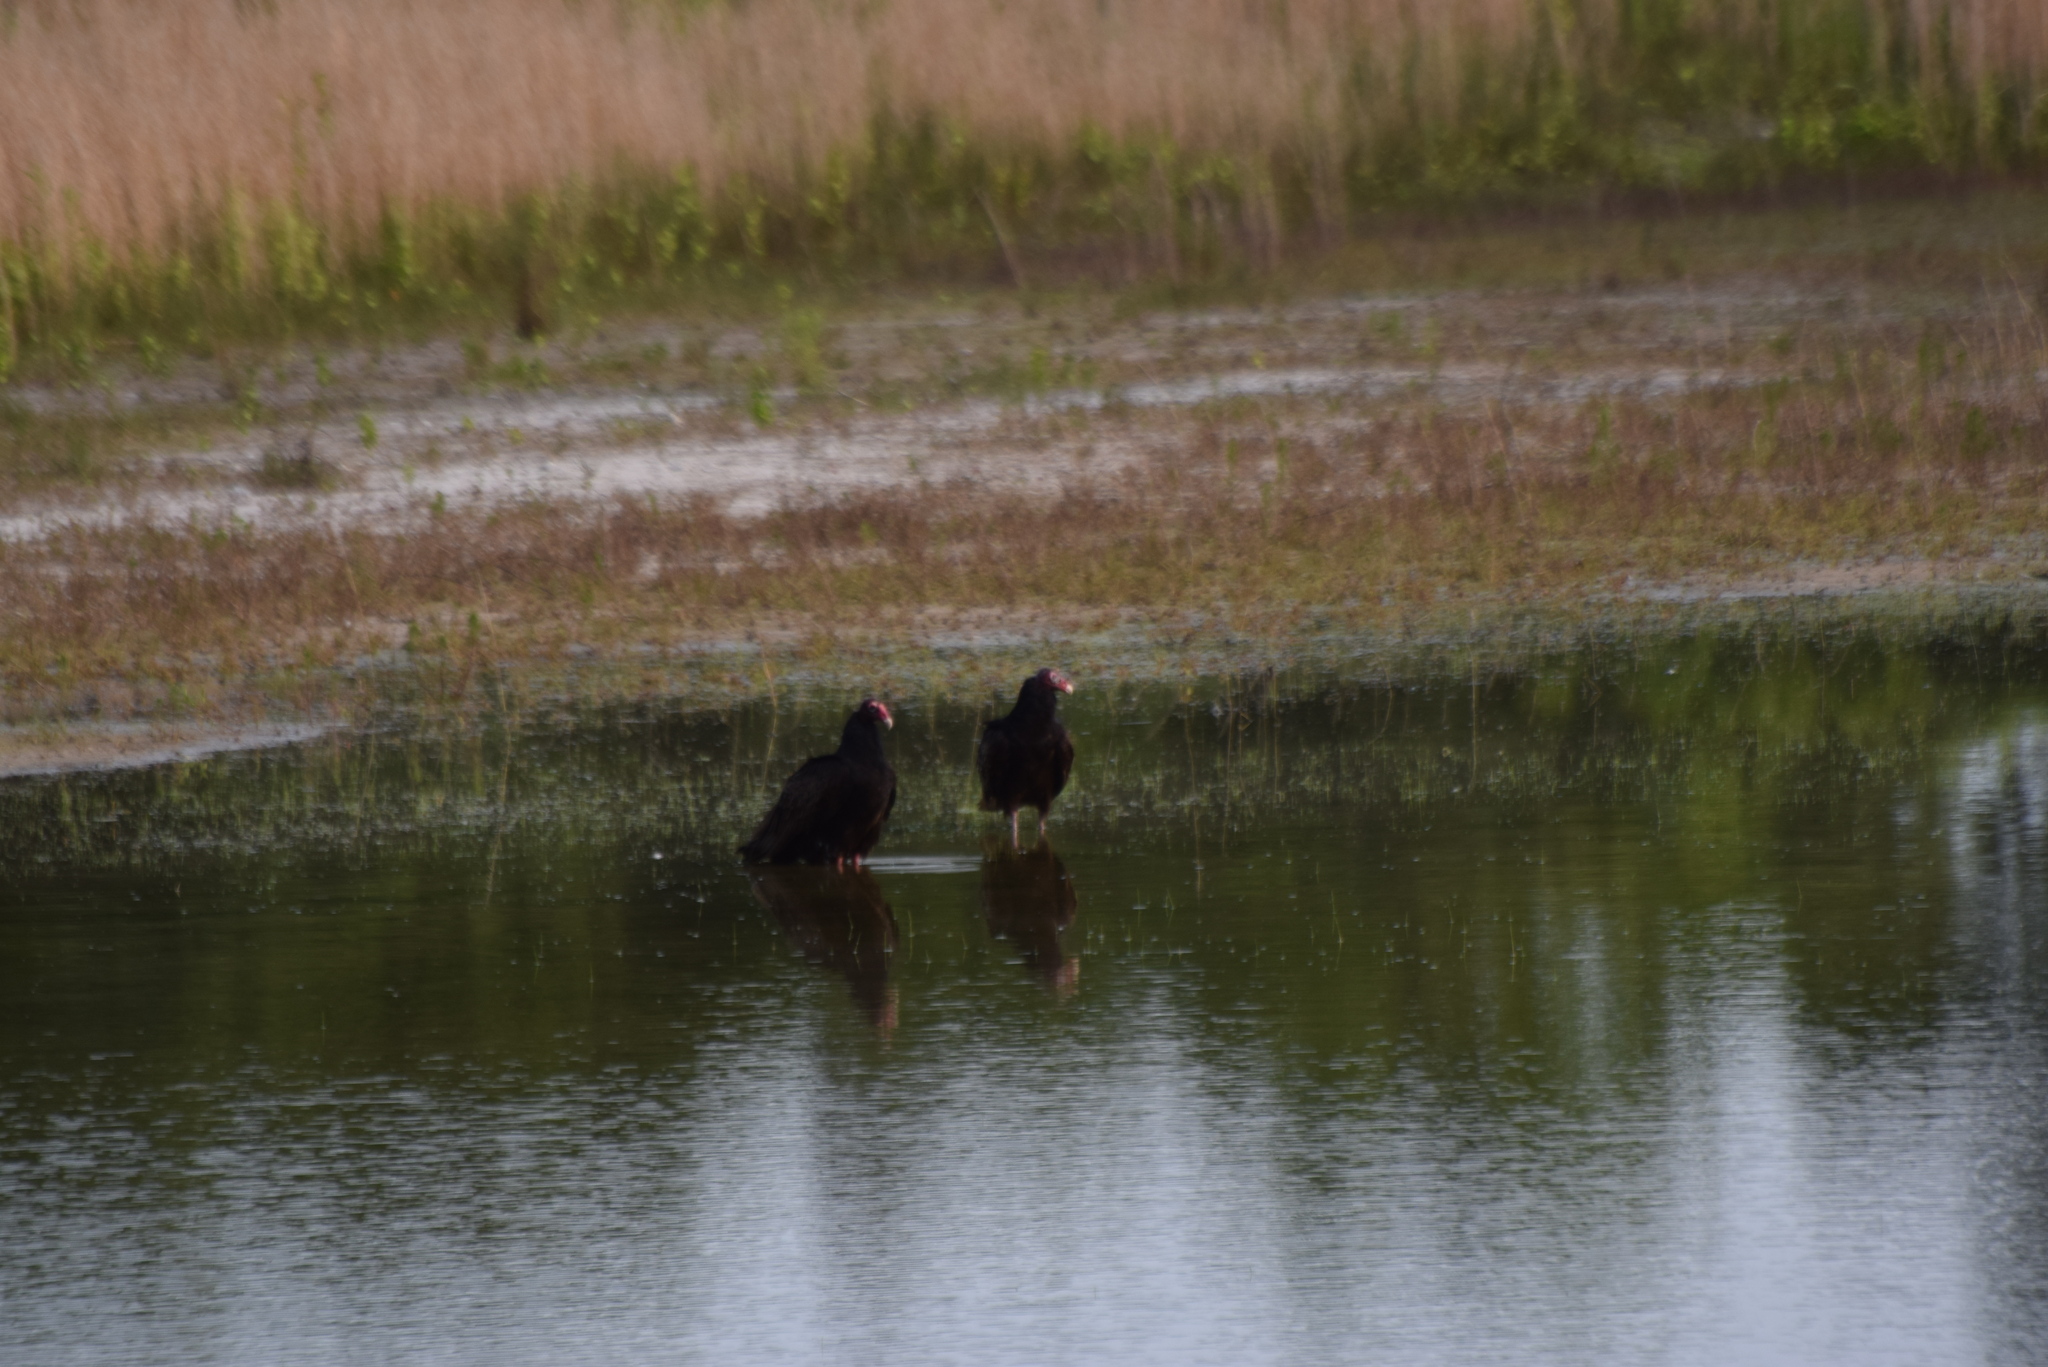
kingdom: Animalia
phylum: Chordata
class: Aves
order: Accipitriformes
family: Cathartidae
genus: Cathartes
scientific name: Cathartes aura
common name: Turkey vulture
